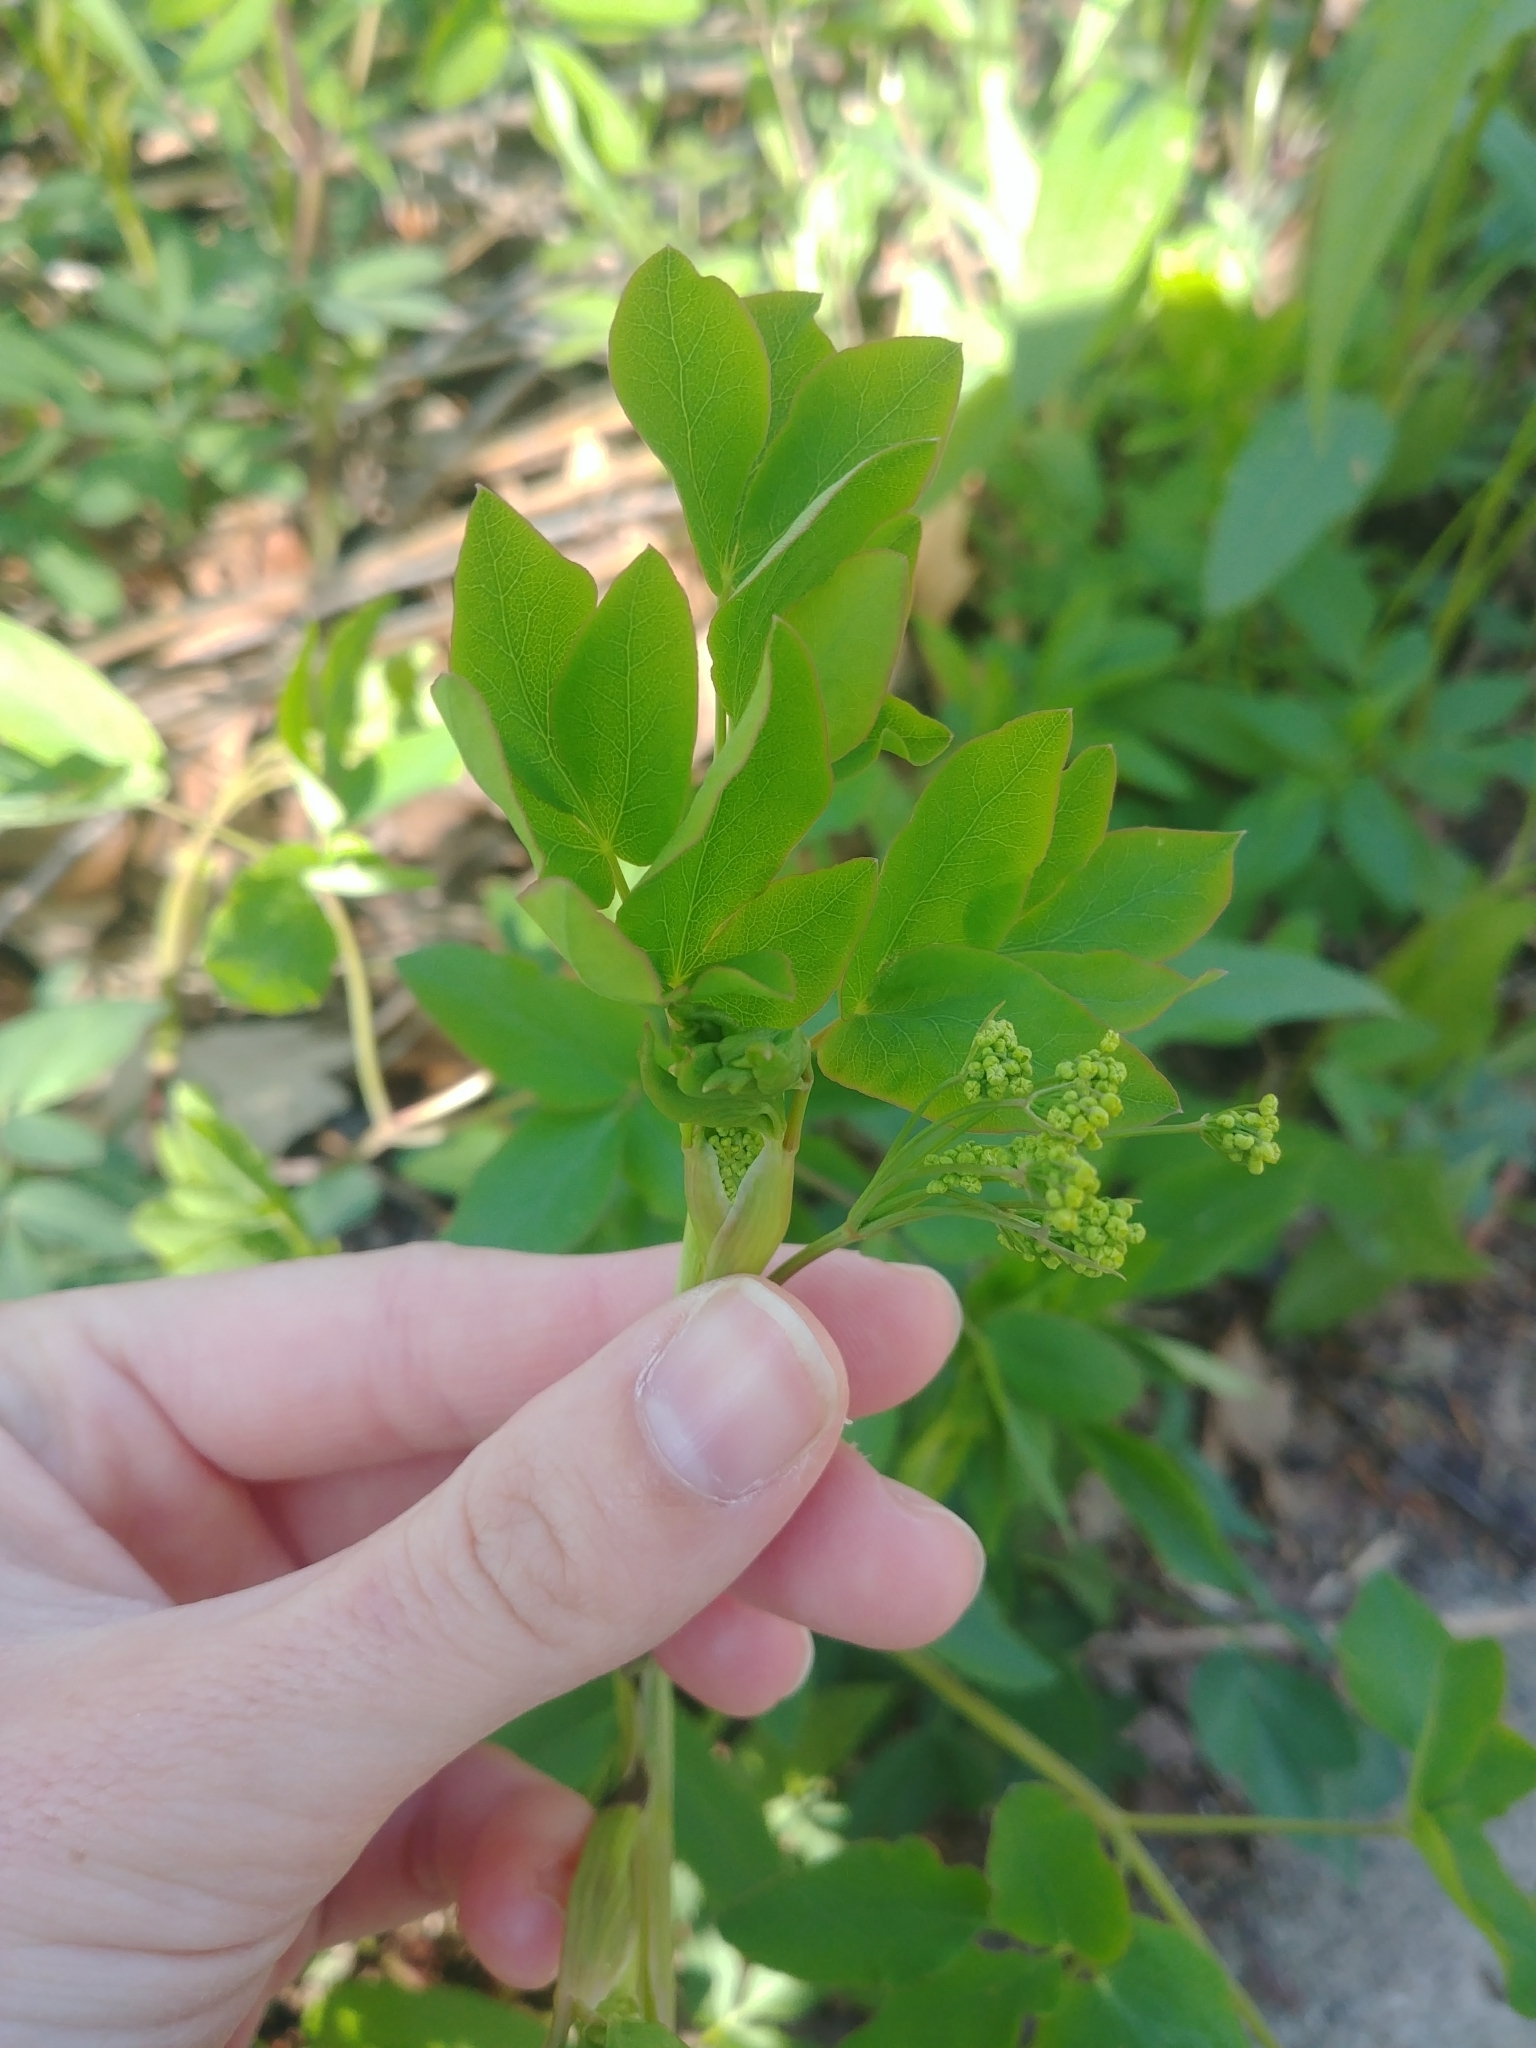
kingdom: Plantae
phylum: Tracheophyta
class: Magnoliopsida
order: Apiales
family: Apiaceae
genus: Taenidia
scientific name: Taenidia integerrima
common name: Golden alexander
